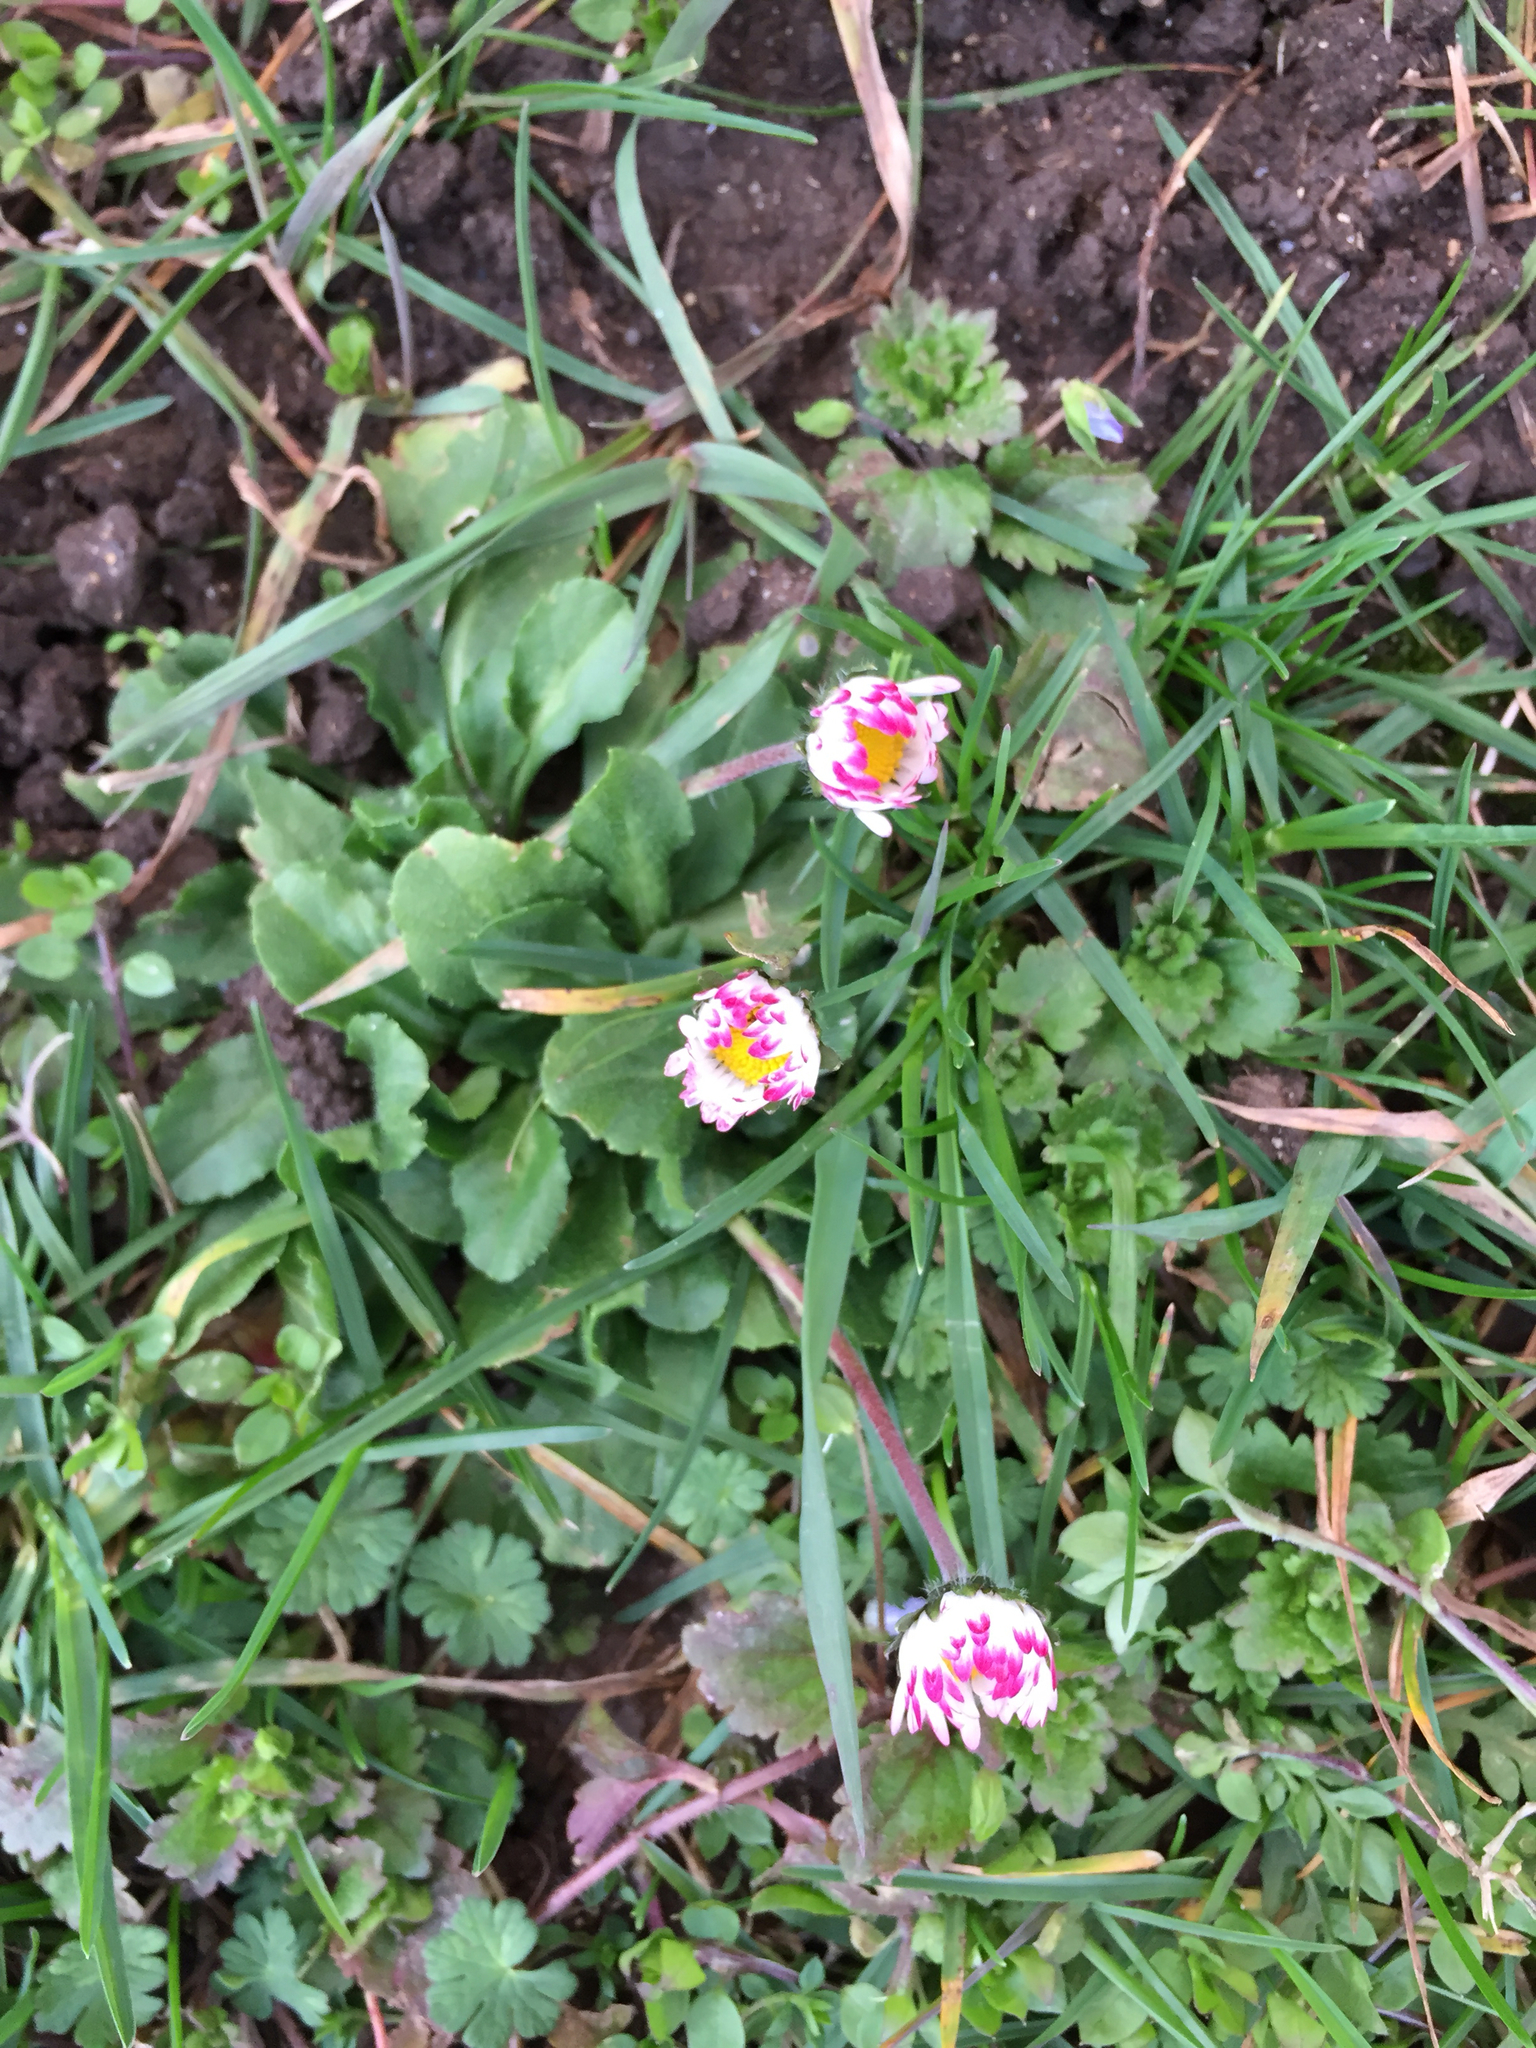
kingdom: Plantae
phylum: Tracheophyta
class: Magnoliopsida
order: Asterales
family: Asteraceae
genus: Bellis
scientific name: Bellis perennis
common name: Lawndaisy
